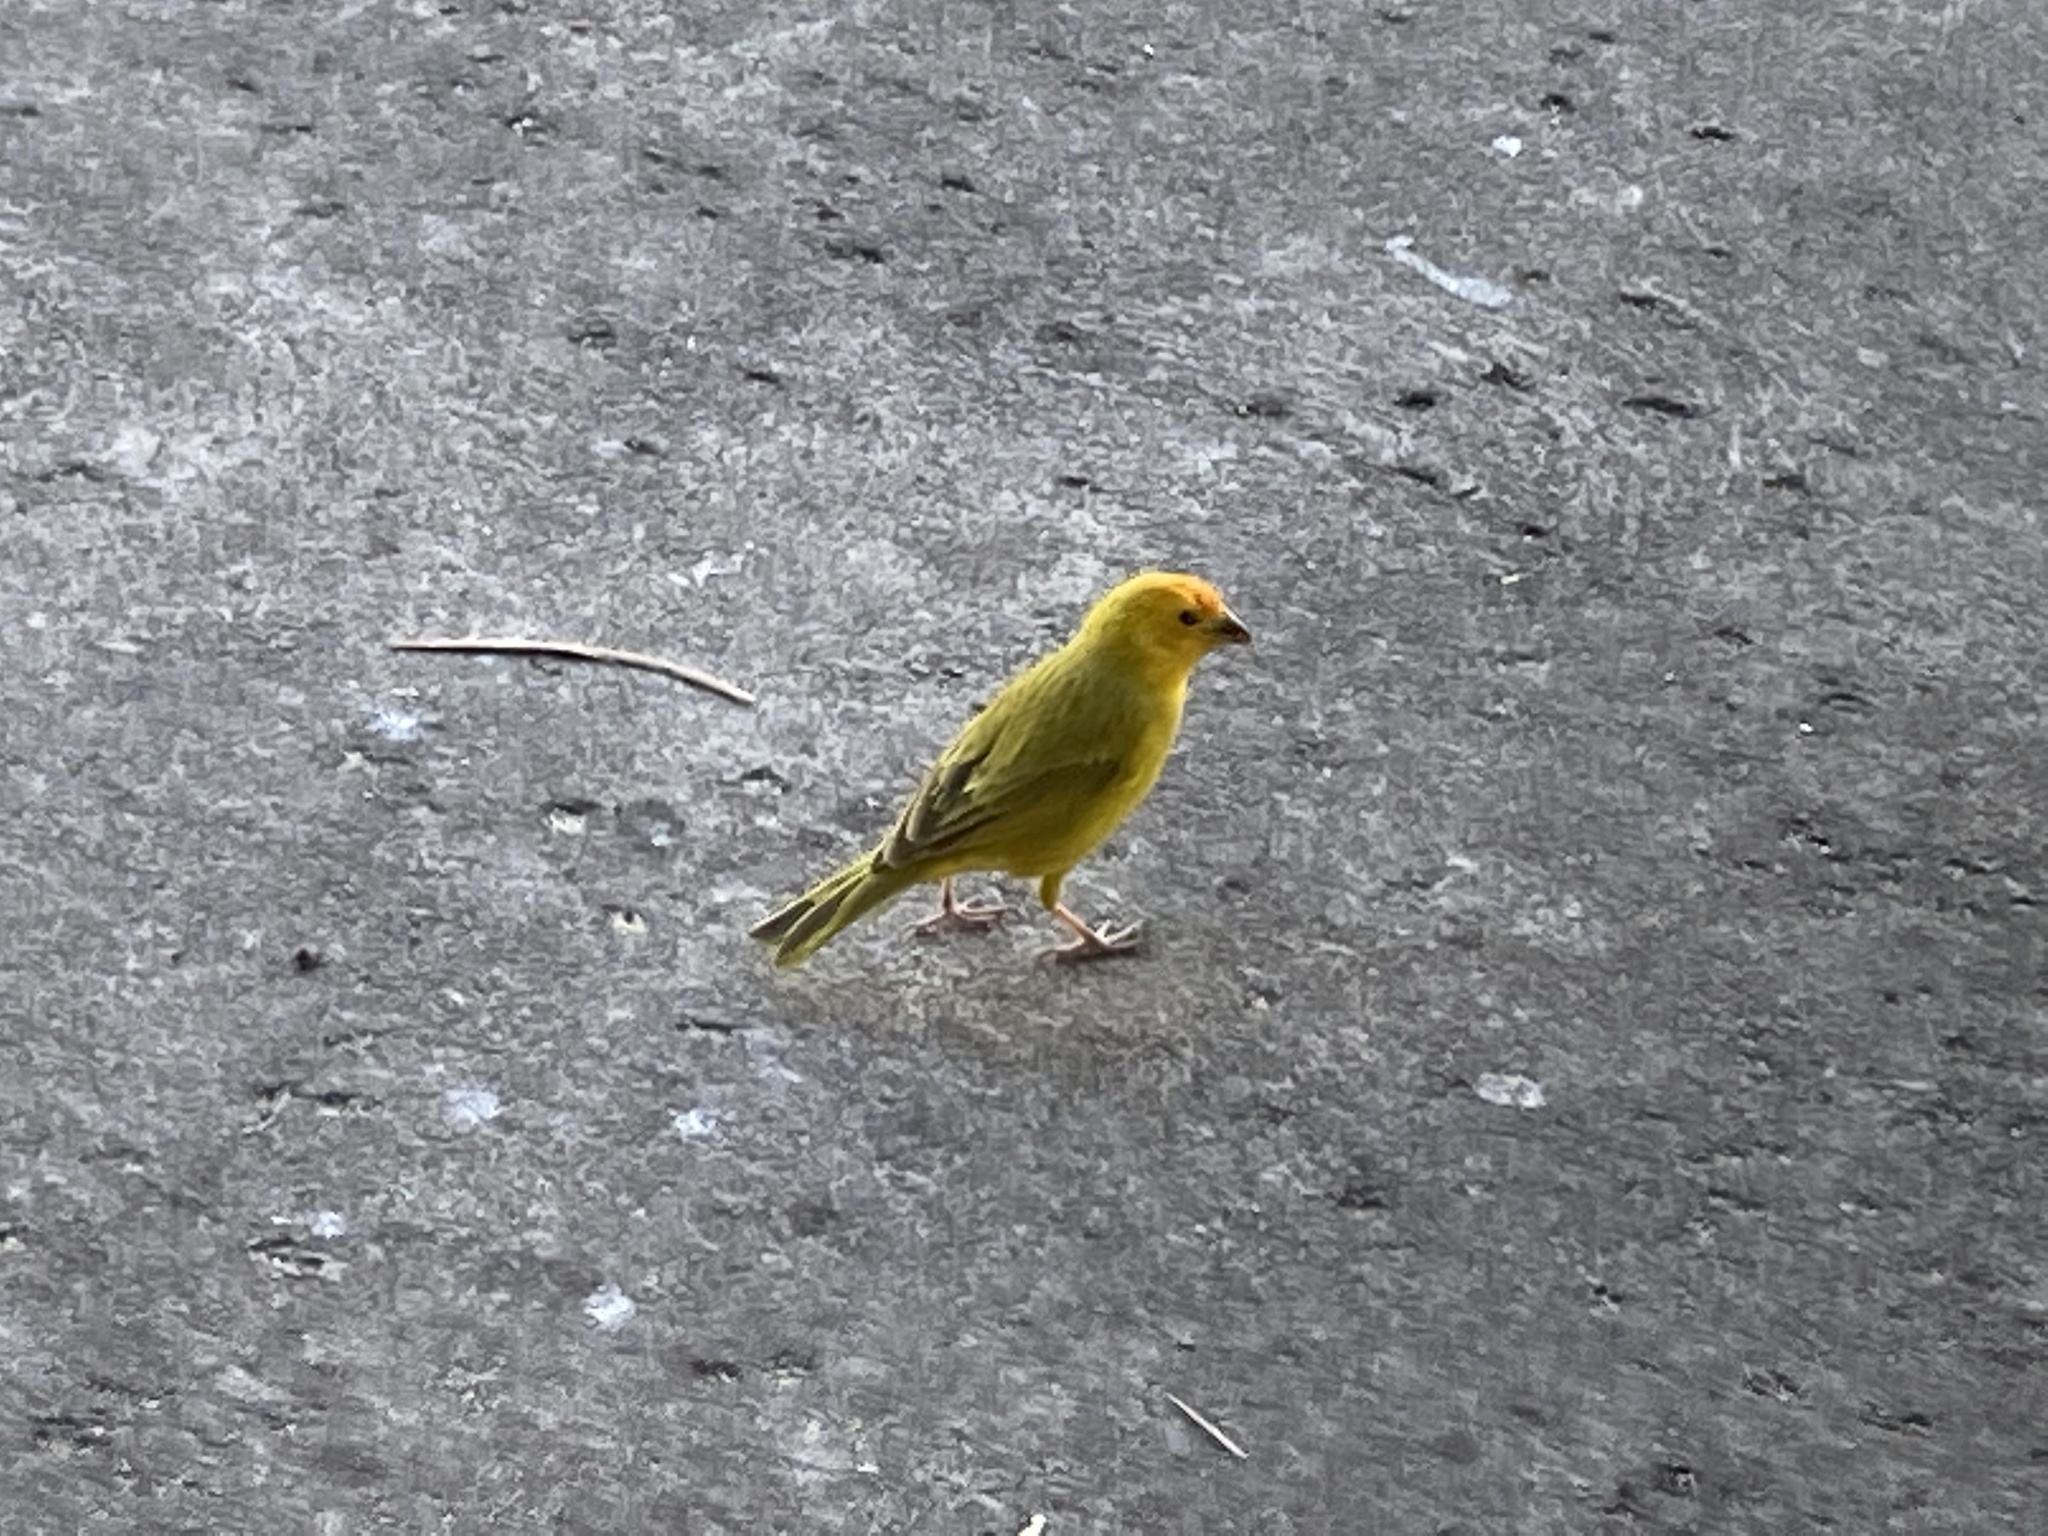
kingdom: Animalia
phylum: Chordata
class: Aves
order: Passeriformes
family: Thraupidae
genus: Sicalis
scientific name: Sicalis flaveola
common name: Saffron finch
